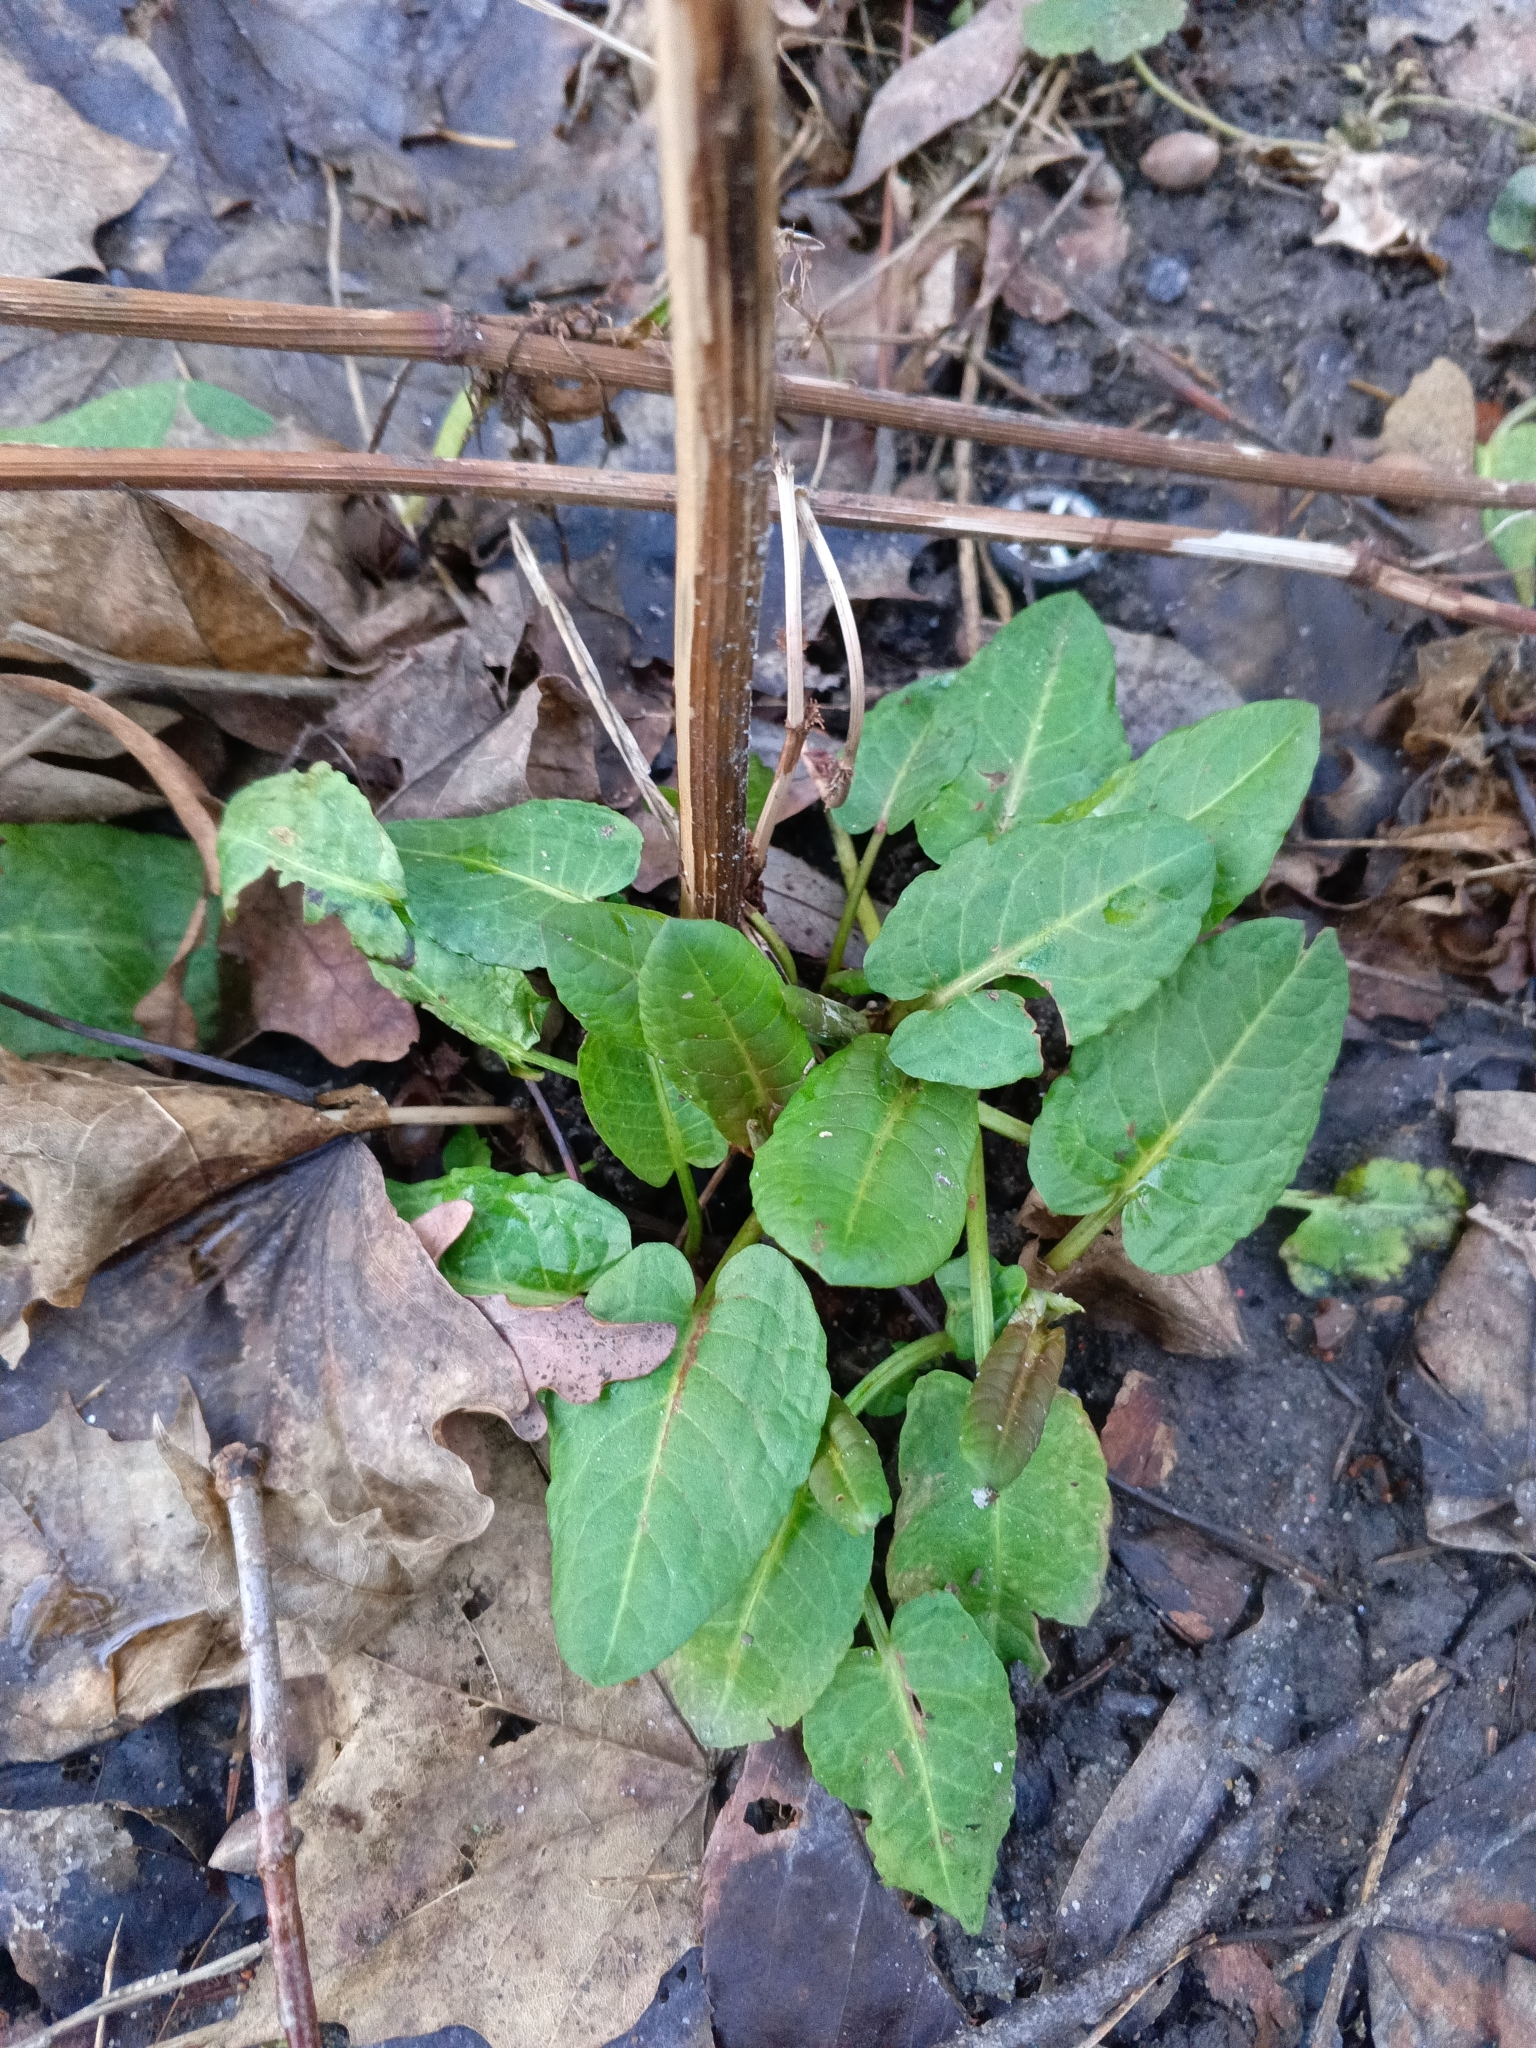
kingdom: Plantae
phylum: Tracheophyta
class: Magnoliopsida
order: Caryophyllales
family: Polygonaceae
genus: Rumex
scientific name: Rumex obtusifolius
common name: Bitter dock
